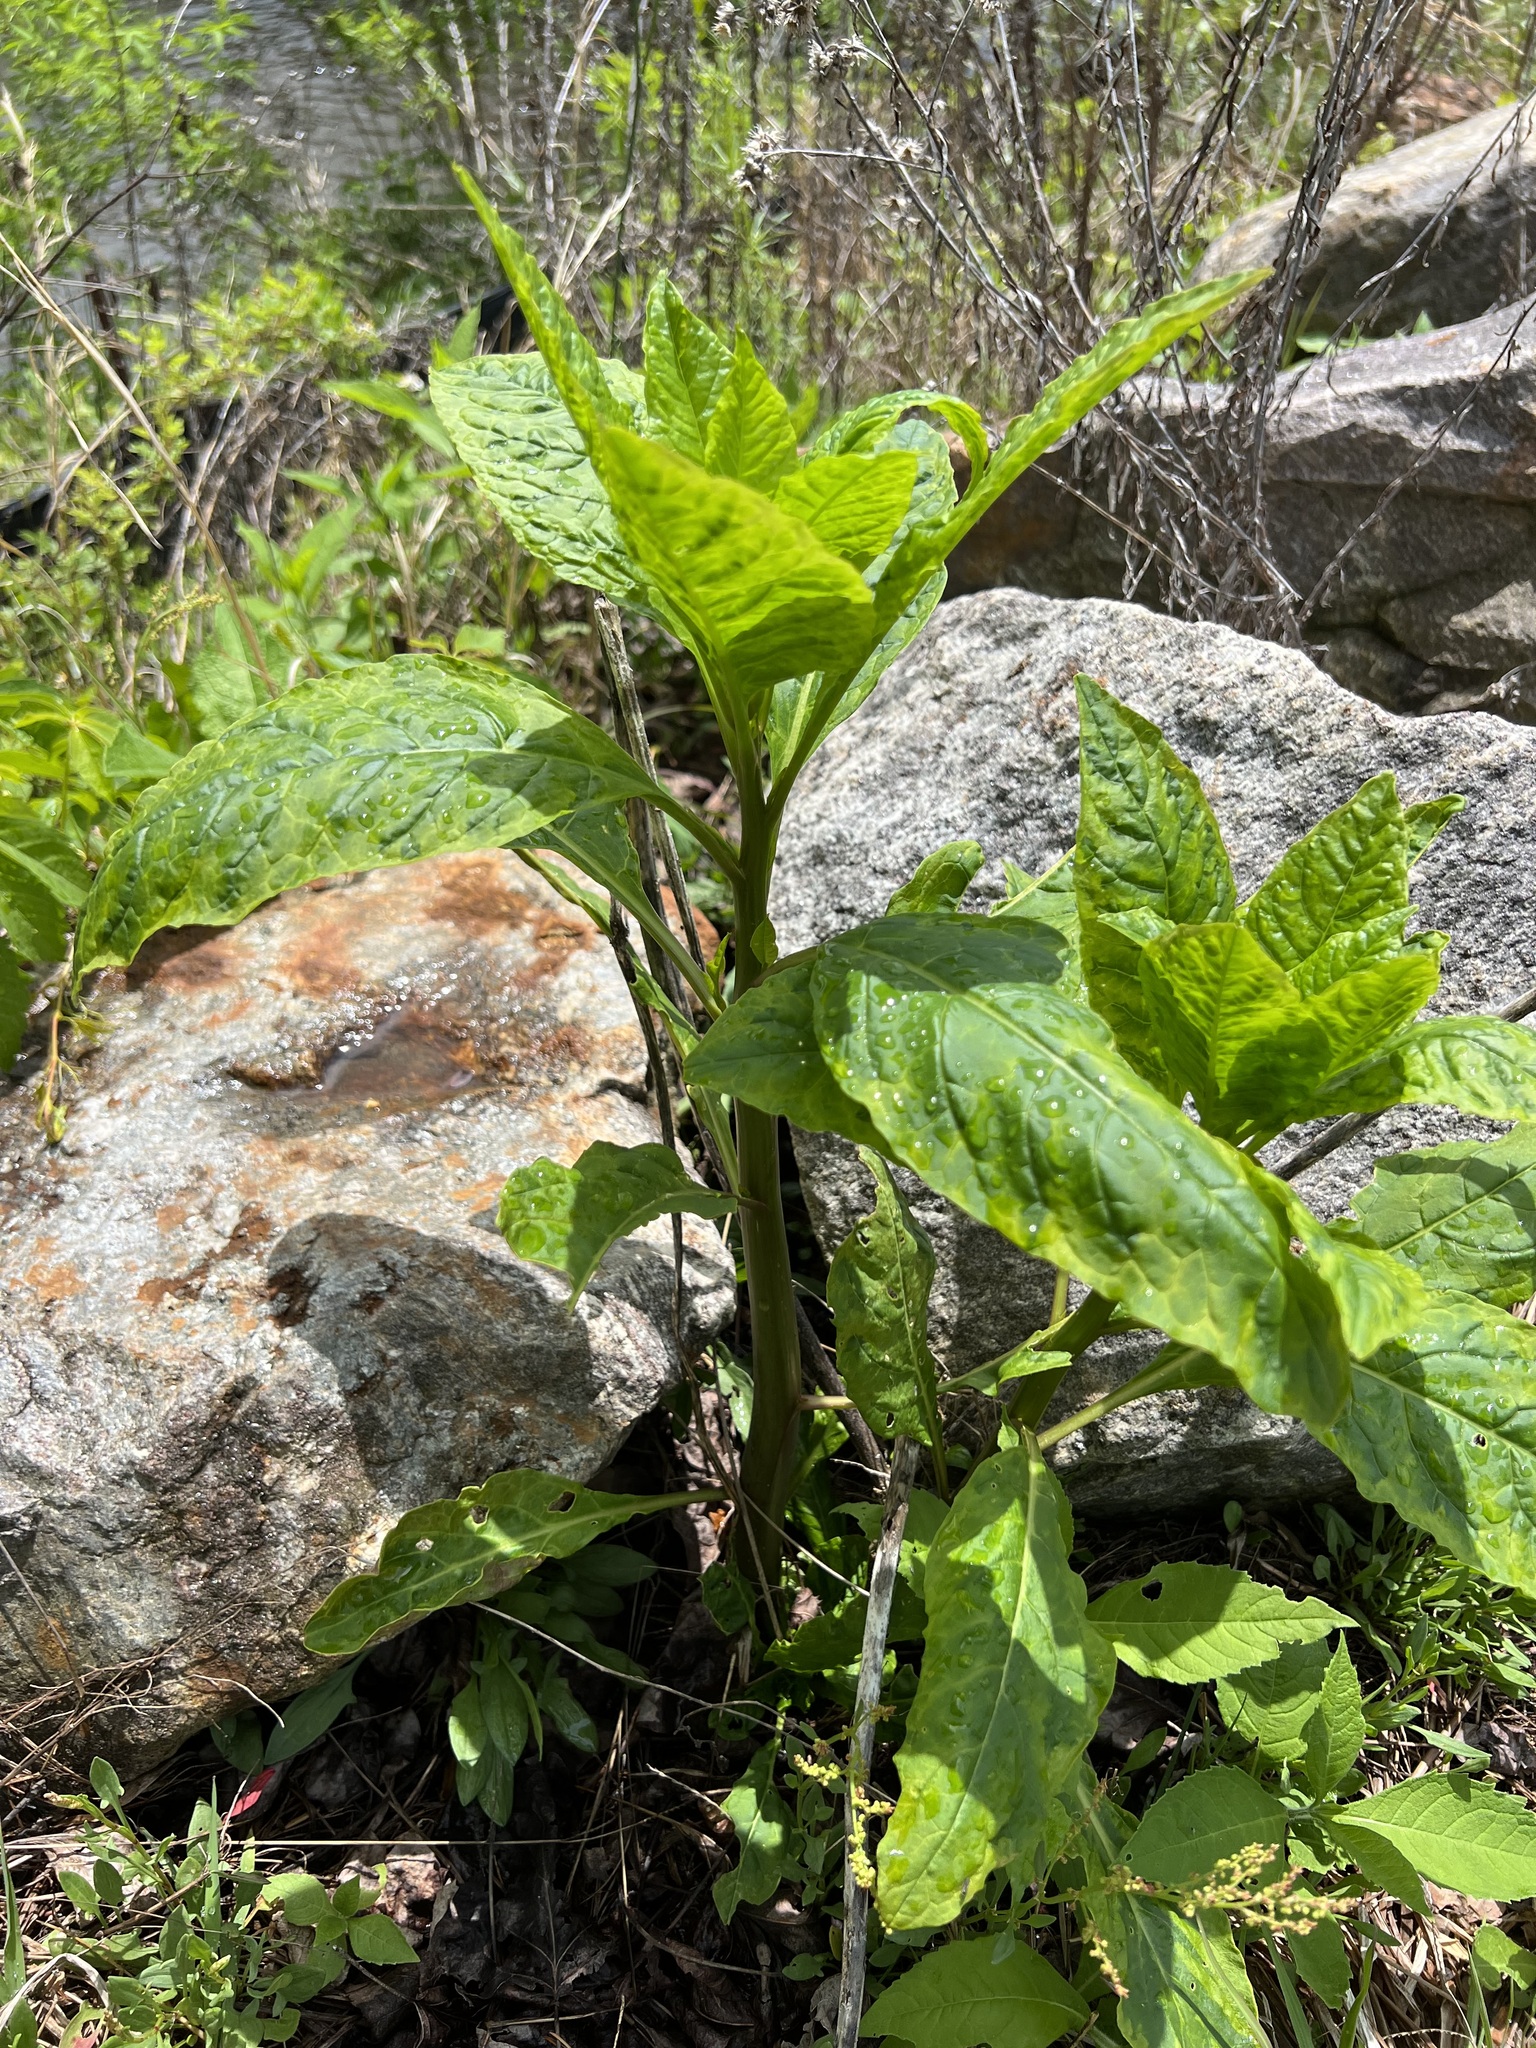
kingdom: Plantae
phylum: Tracheophyta
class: Magnoliopsida
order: Caryophyllales
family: Phytolaccaceae
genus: Phytolacca
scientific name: Phytolacca americana
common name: American pokeweed
